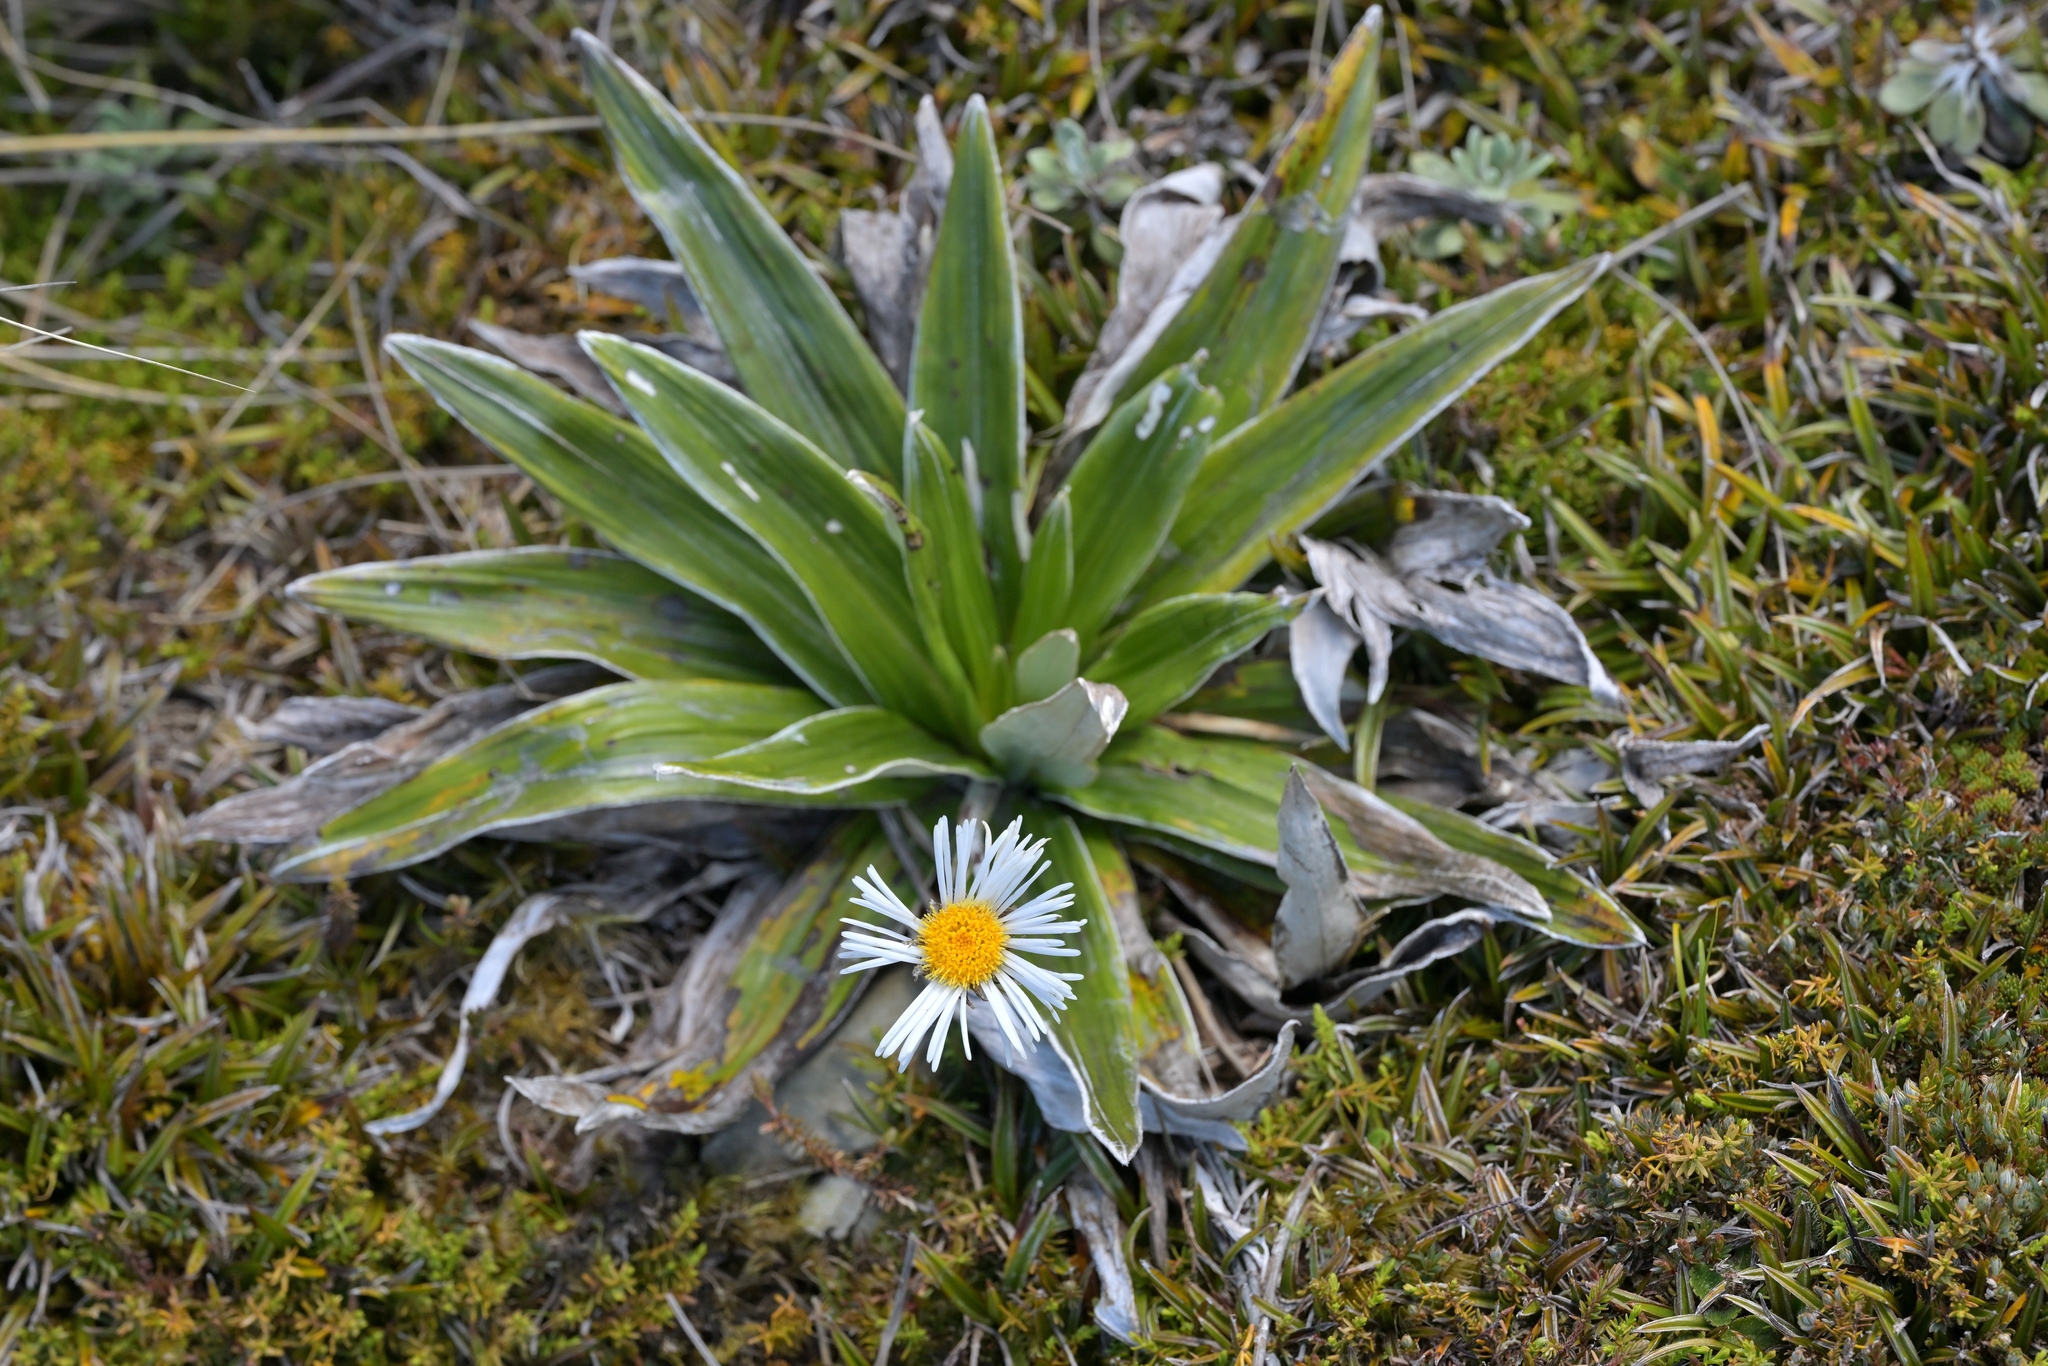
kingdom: Plantae
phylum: Tracheophyta
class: Magnoliopsida
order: Asterales
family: Asteraceae
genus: Celmisia
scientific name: Celmisia semicordata
